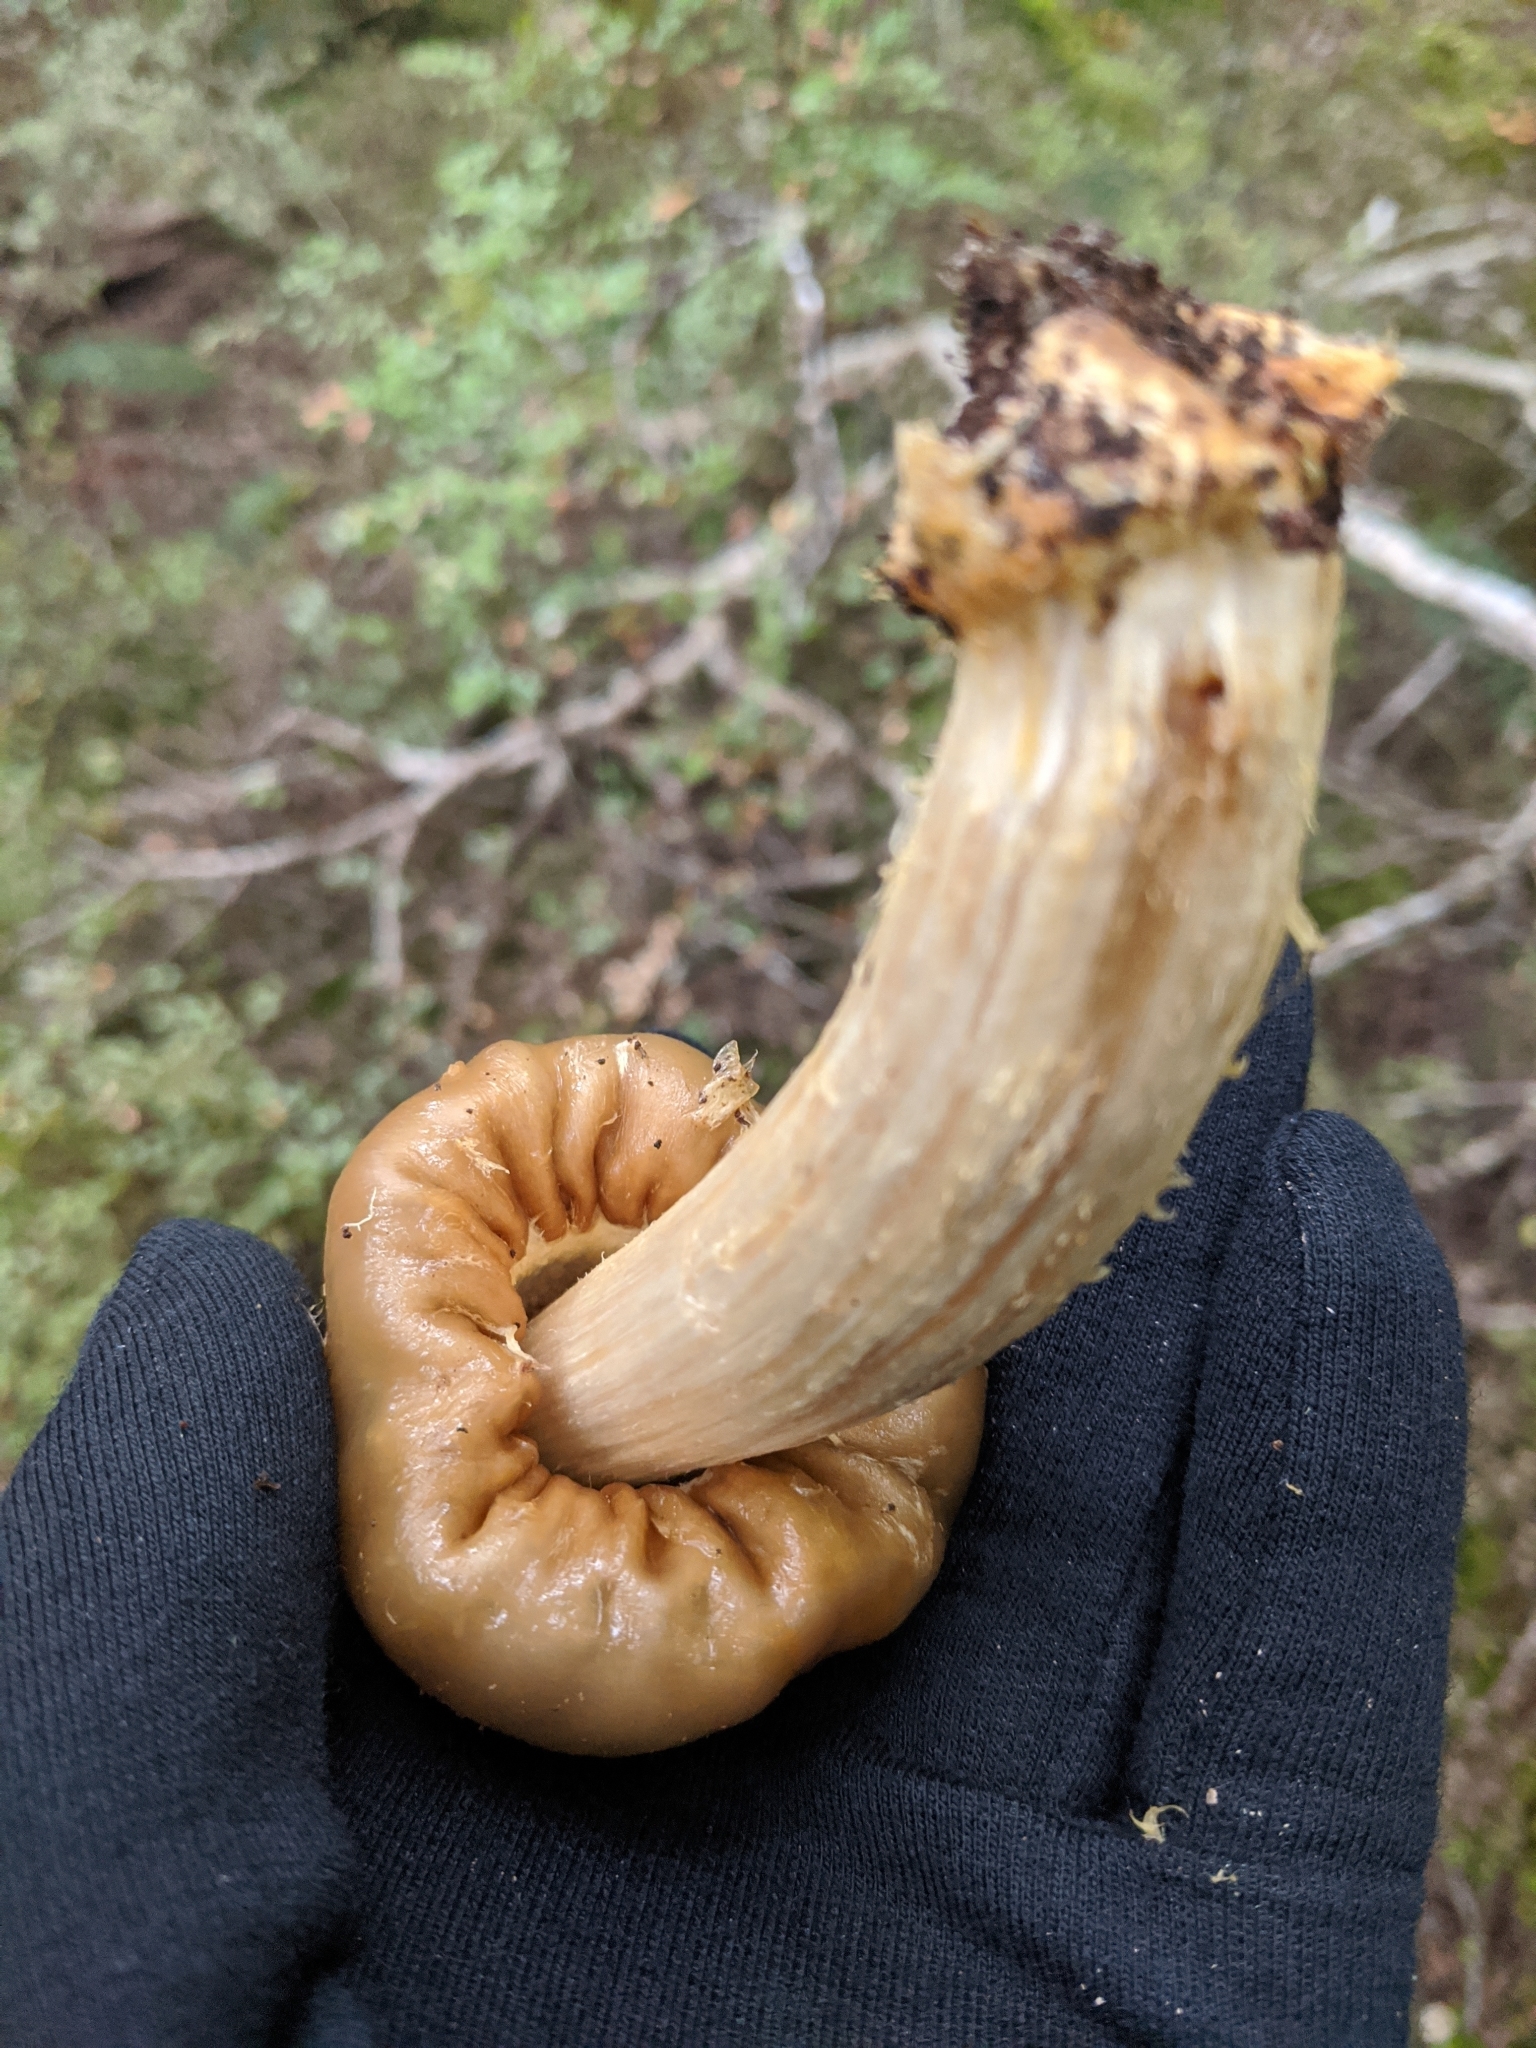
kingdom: Fungi
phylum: Basidiomycota
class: Agaricomycetes
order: Agaricales
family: Cortinariaceae
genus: Cortinarius
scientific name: Cortinarius epiphaeus
